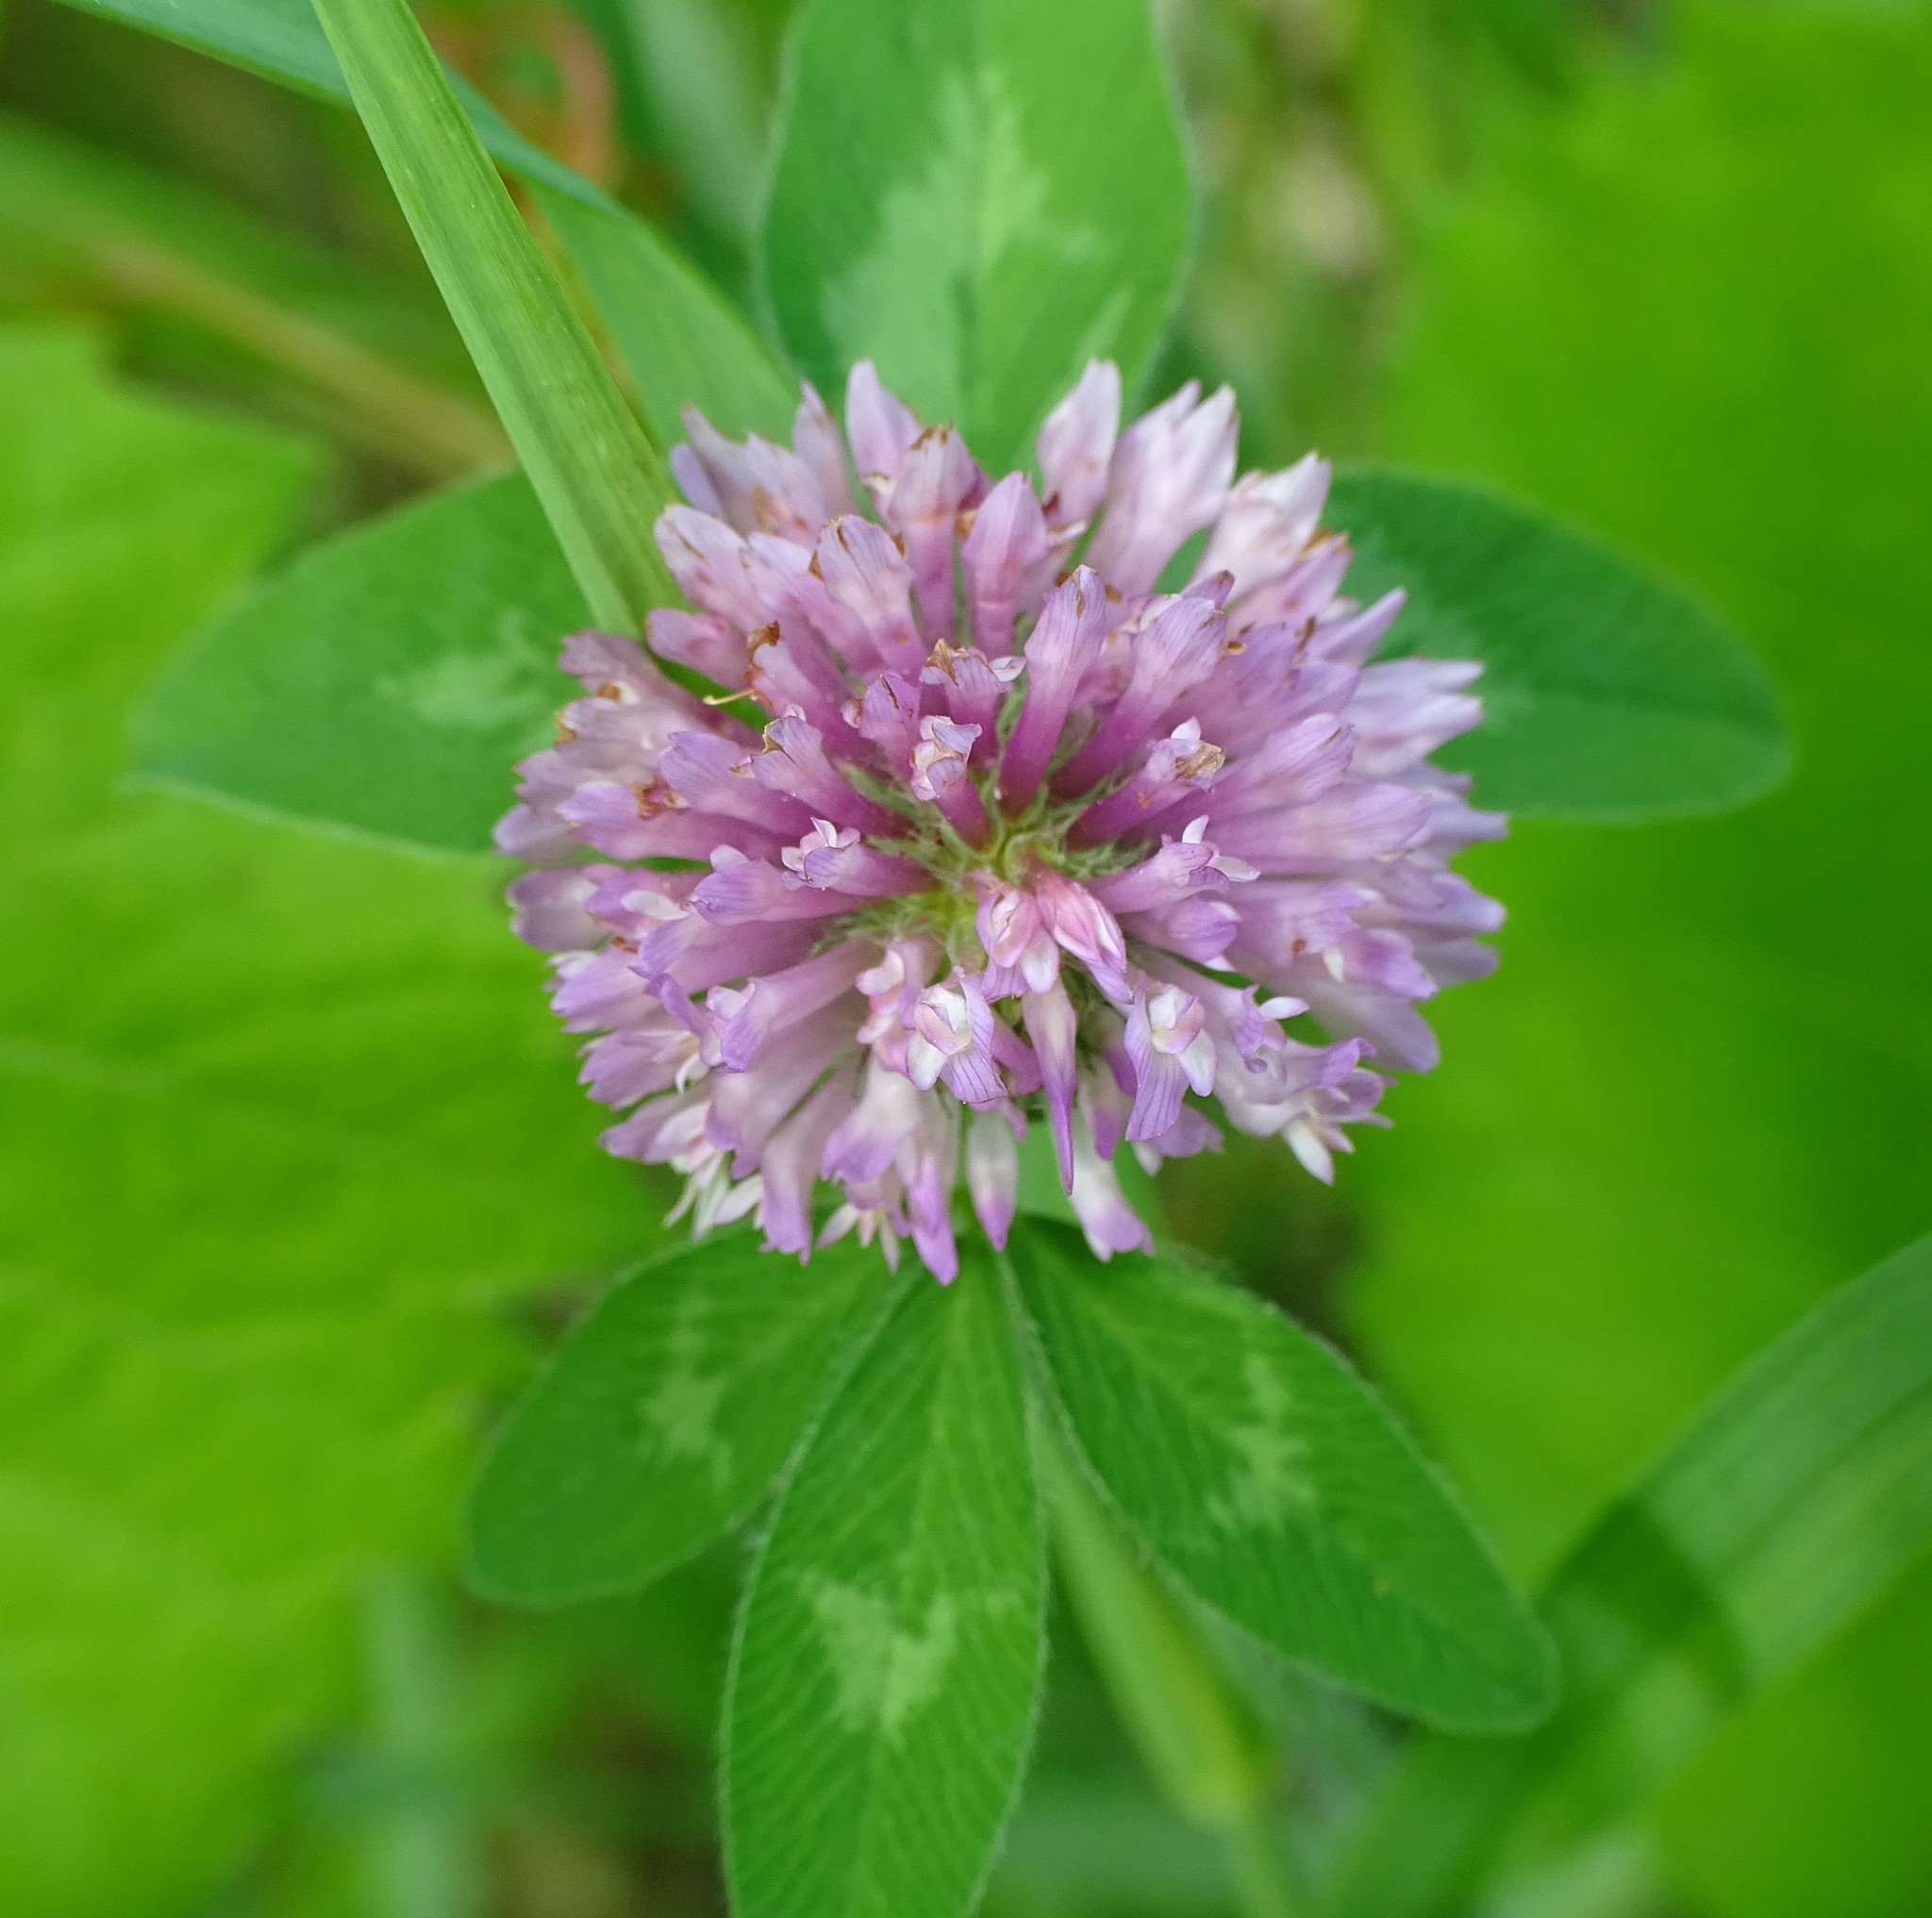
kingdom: Plantae
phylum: Tracheophyta
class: Magnoliopsida
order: Fabales
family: Fabaceae
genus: Trifolium
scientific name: Trifolium pratense
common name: Red clover
